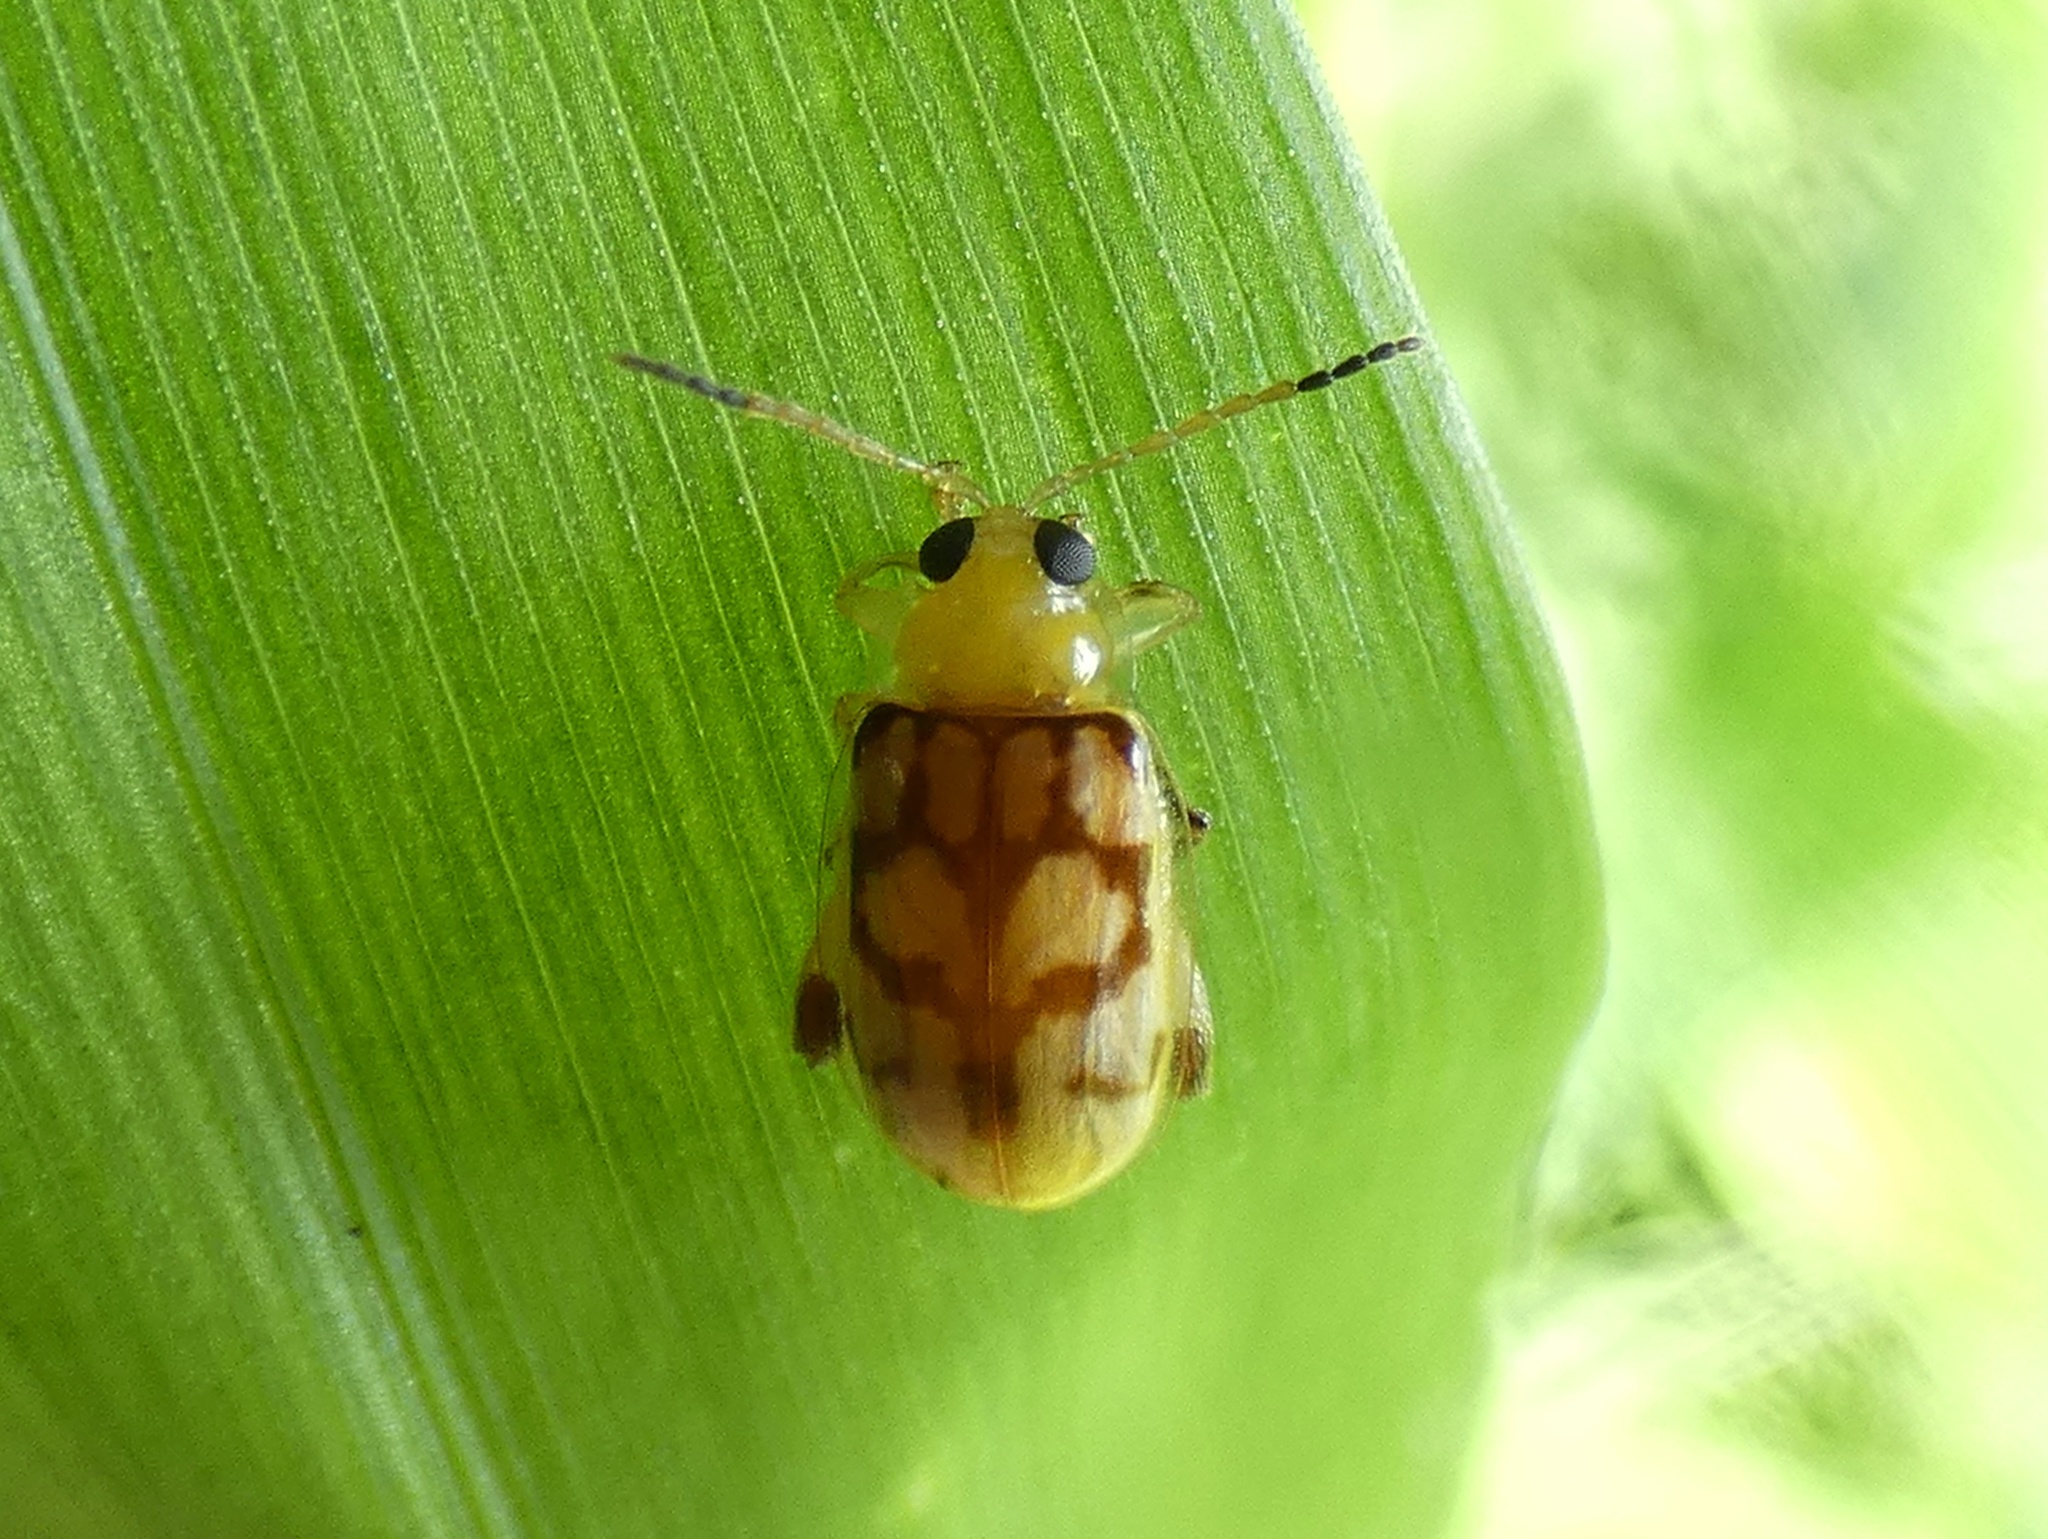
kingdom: Animalia
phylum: Arthropoda
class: Insecta
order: Coleoptera
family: Chrysomelidae
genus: Walterianella
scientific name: Walterianella
